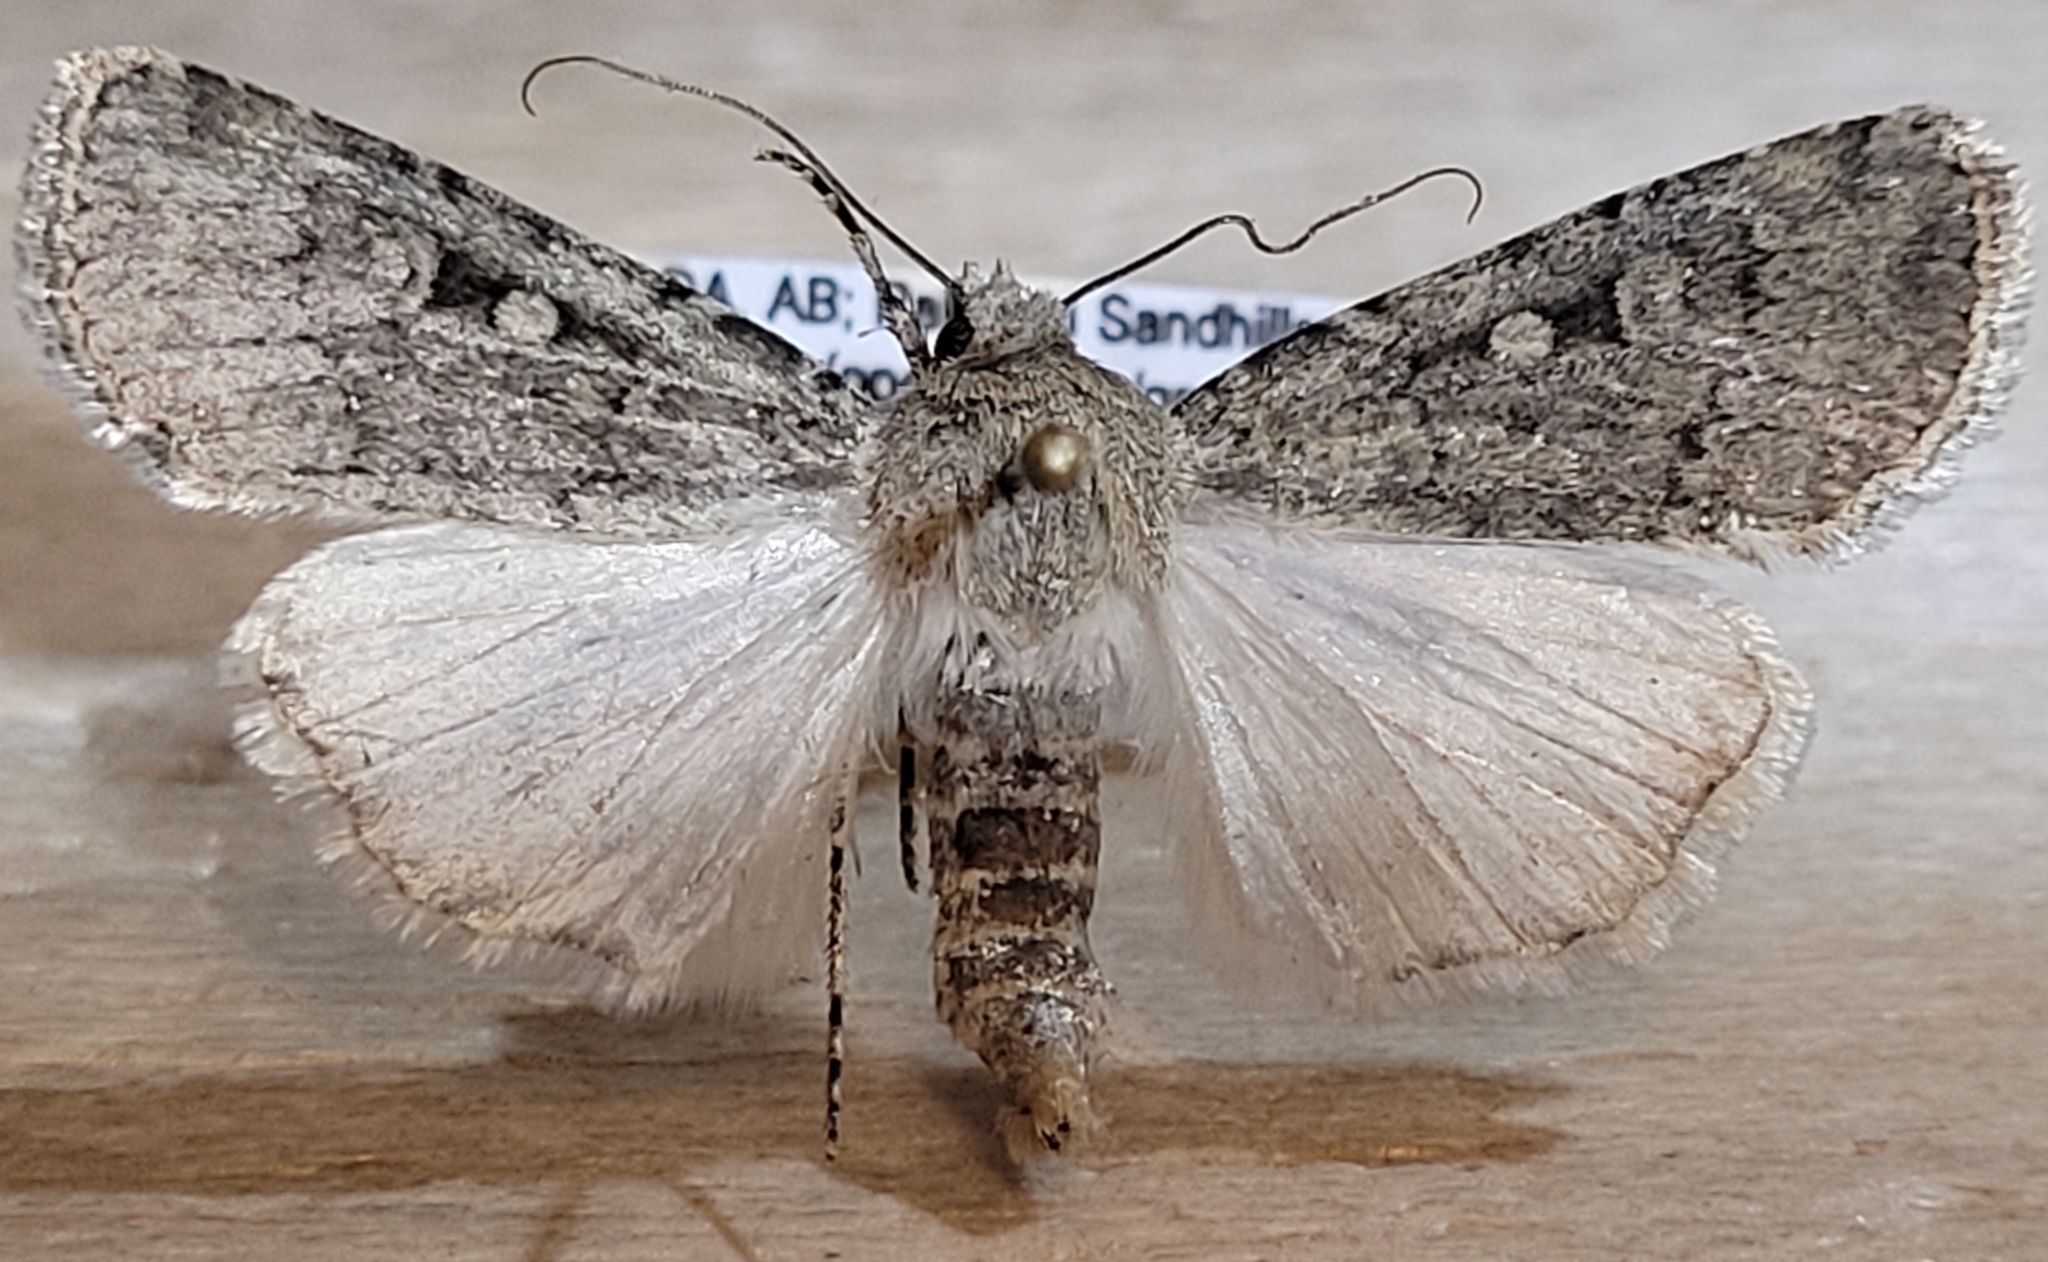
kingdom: Animalia
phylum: Arthropoda
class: Insecta
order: Lepidoptera
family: Noctuidae
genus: Euxoa
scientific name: Euxoa pallipennis
